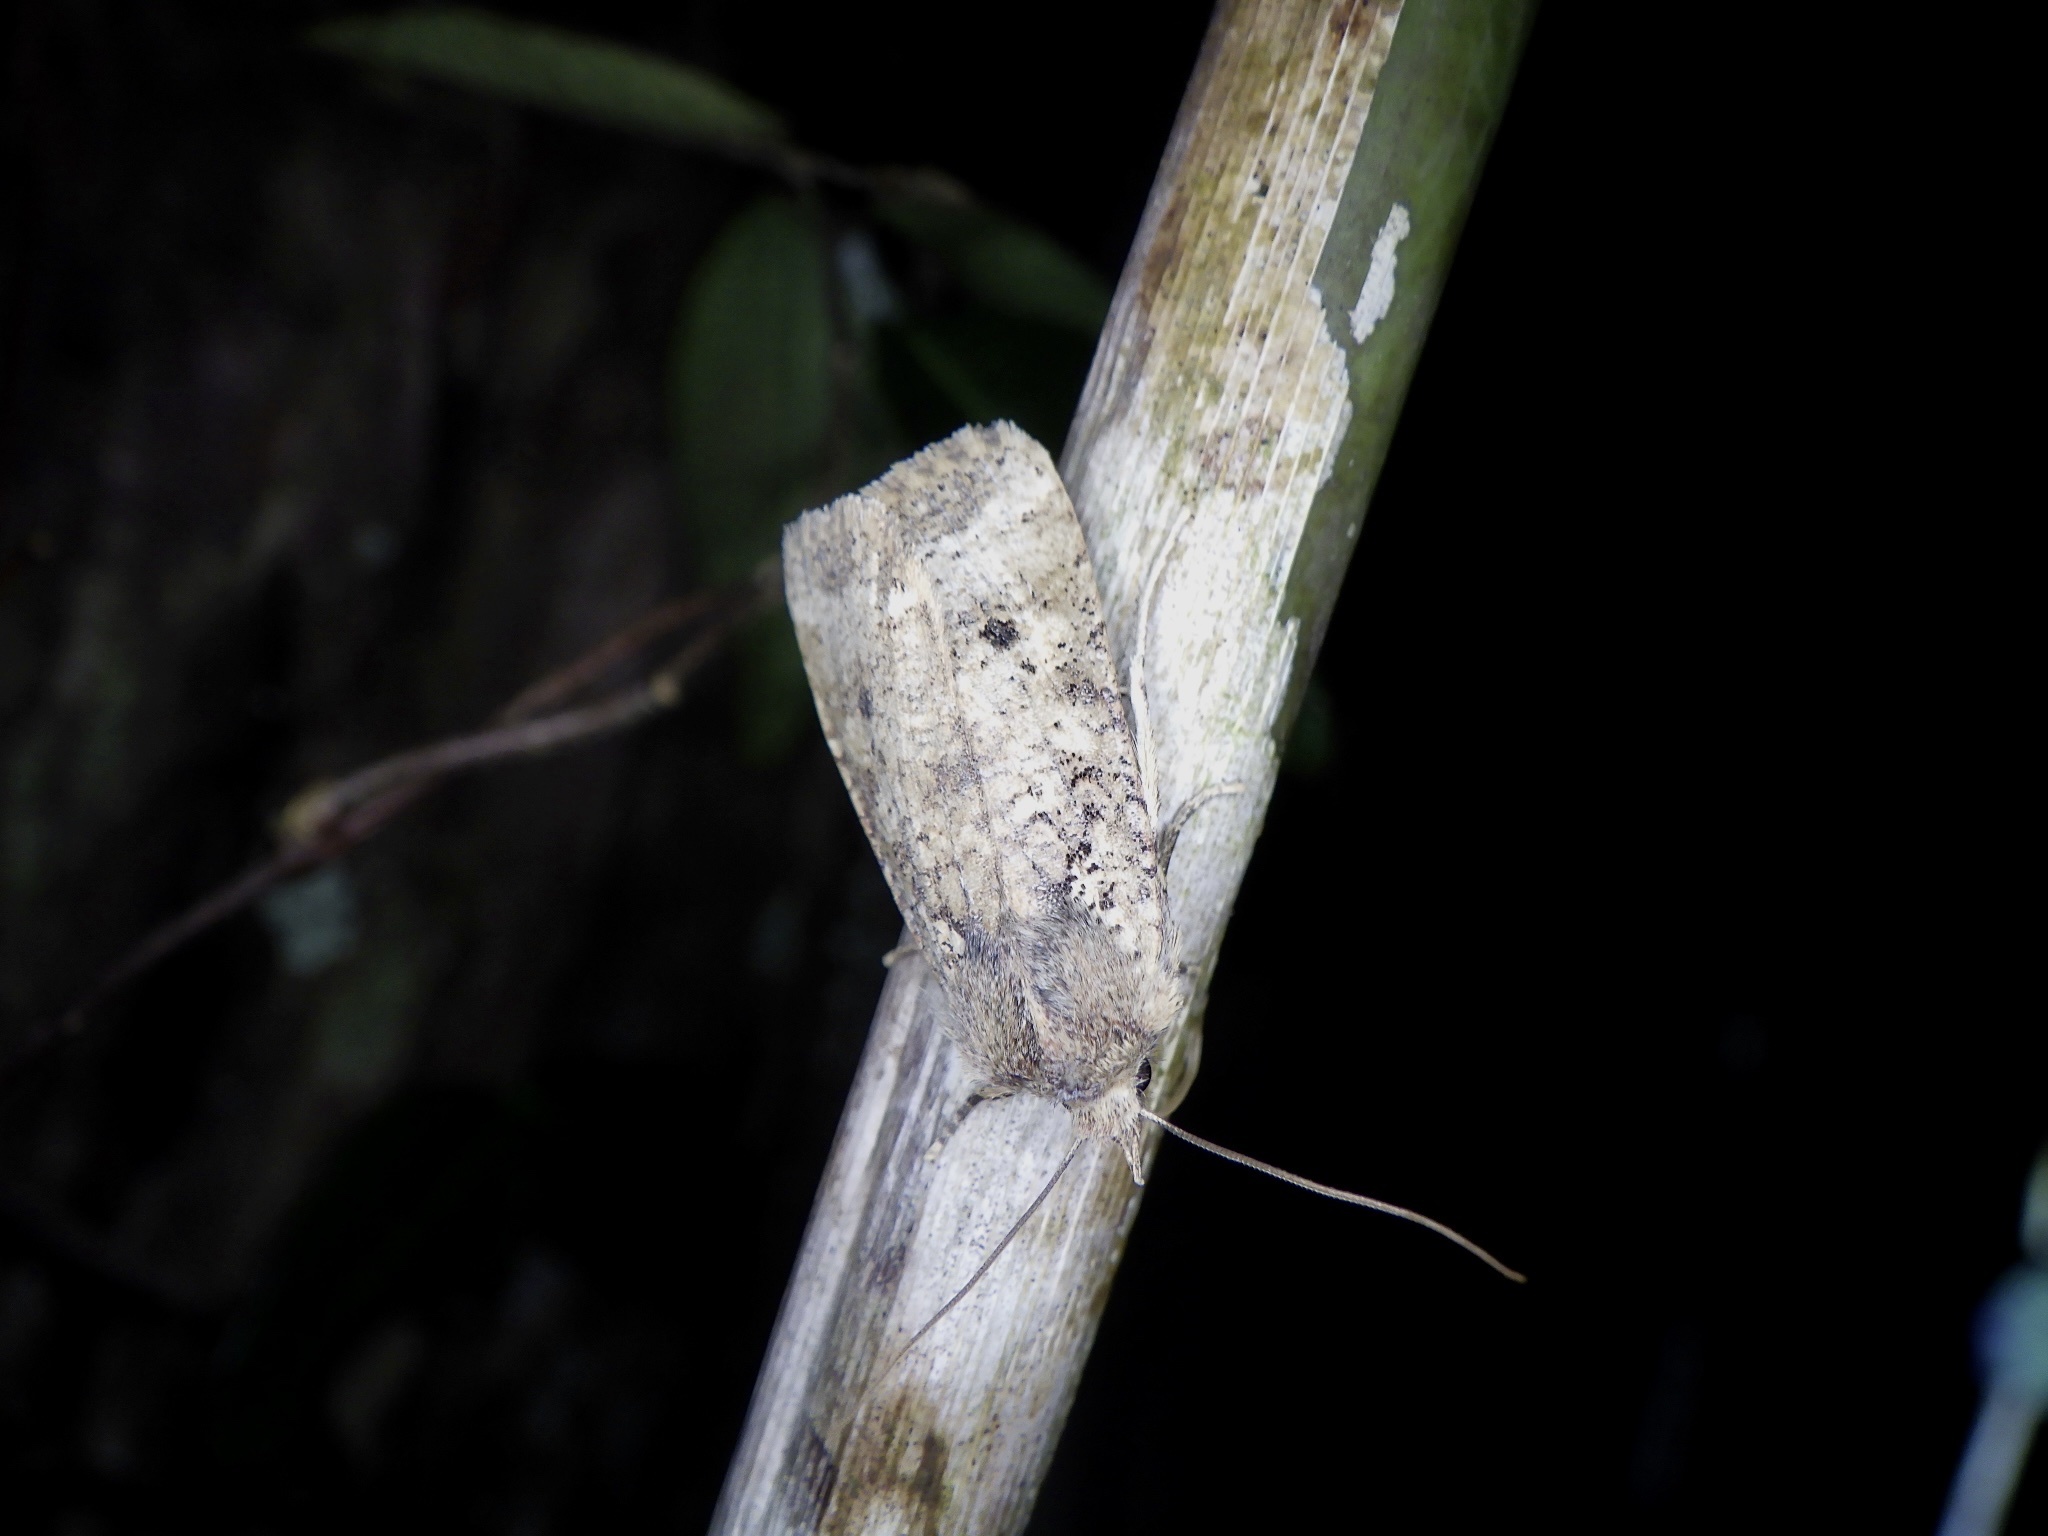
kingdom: Animalia
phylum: Arthropoda
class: Insecta
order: Lepidoptera
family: Noctuidae
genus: Rhynchaglaea
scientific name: Rhynchaglaea fuscipennis
